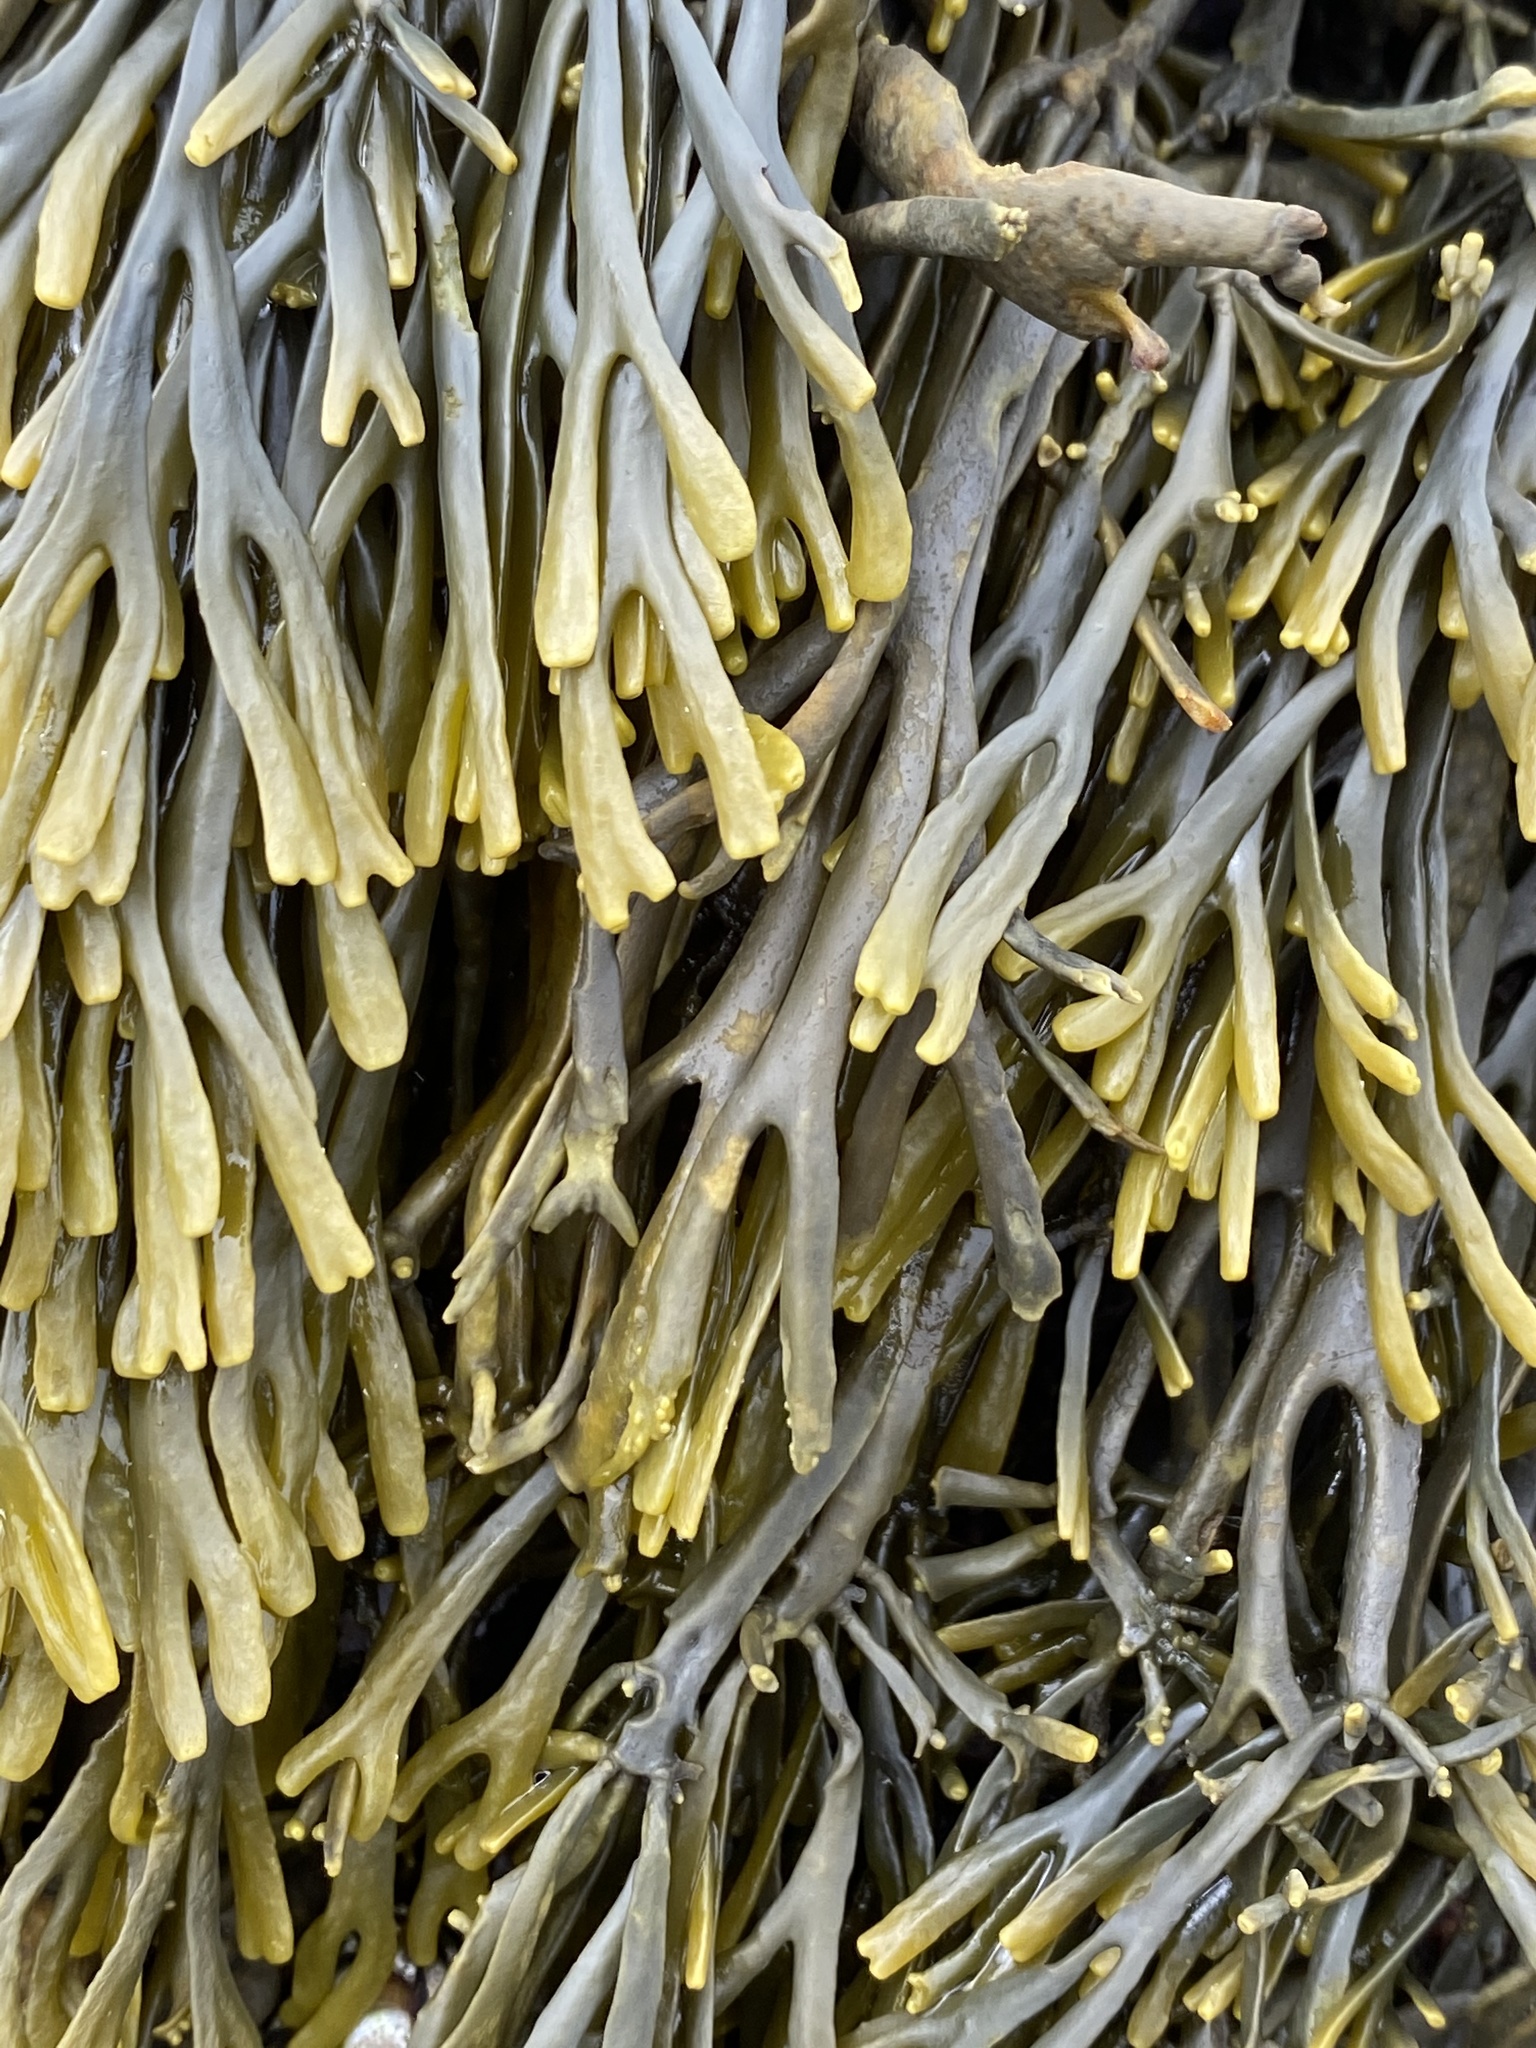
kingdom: Chromista
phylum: Ochrophyta
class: Phaeophyceae
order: Fucales
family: Fucaceae
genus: Silvetia
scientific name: Silvetia
